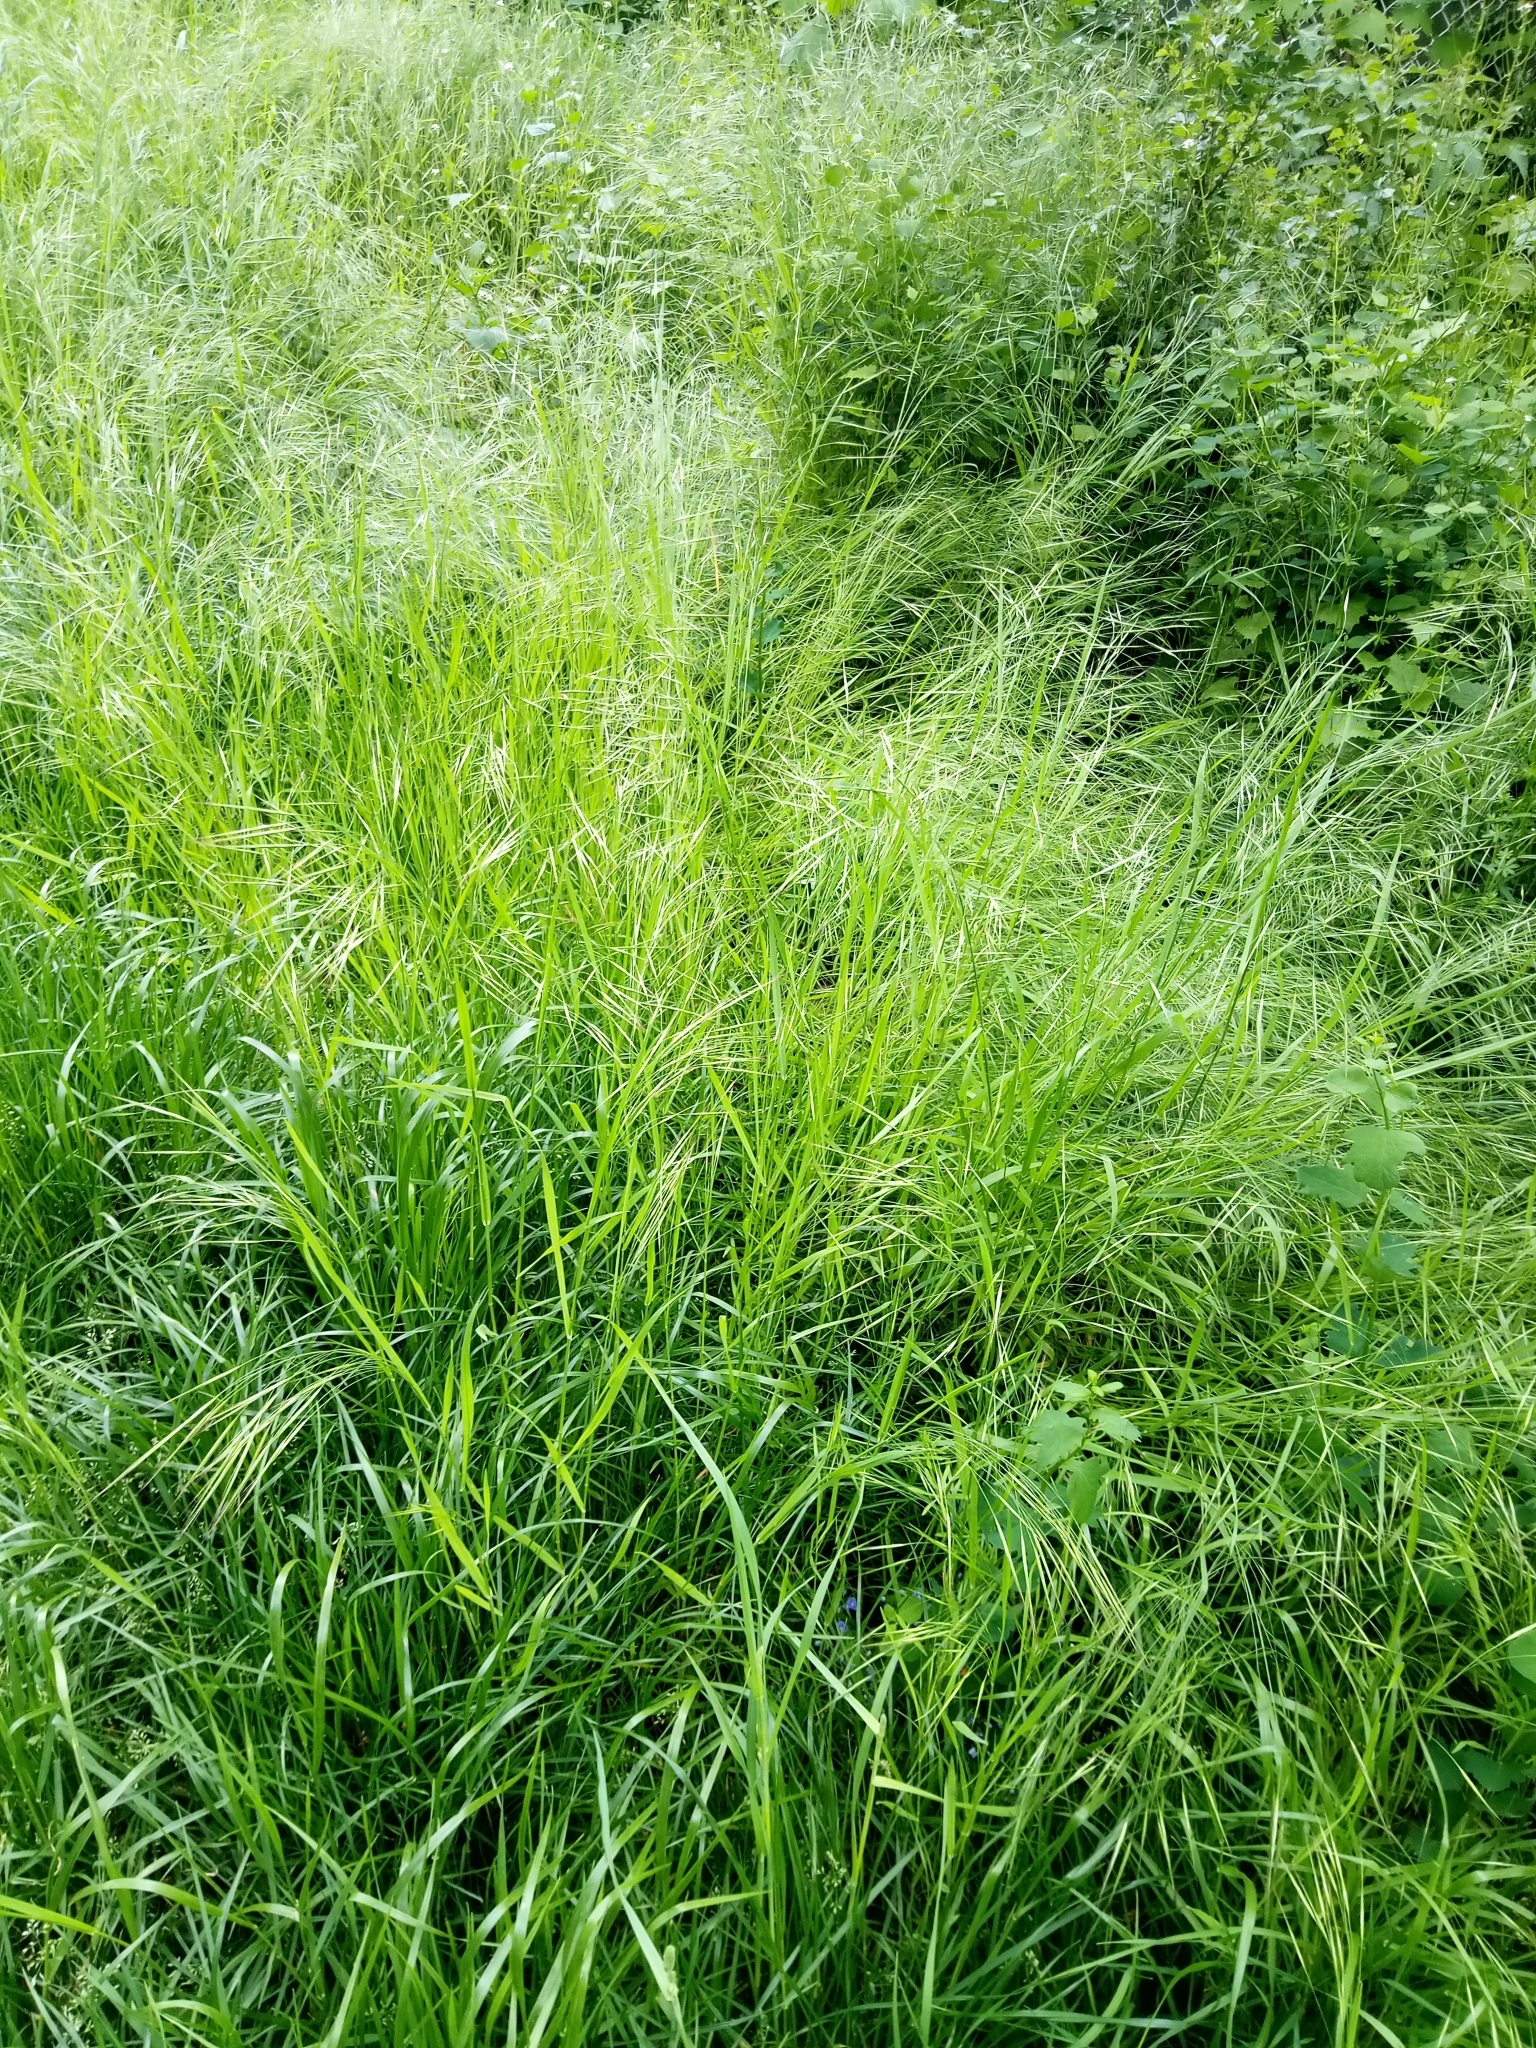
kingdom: Plantae
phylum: Tracheophyta
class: Liliopsida
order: Poales
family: Poaceae
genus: Bromus
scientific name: Bromus sterilis
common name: Poverty brome
